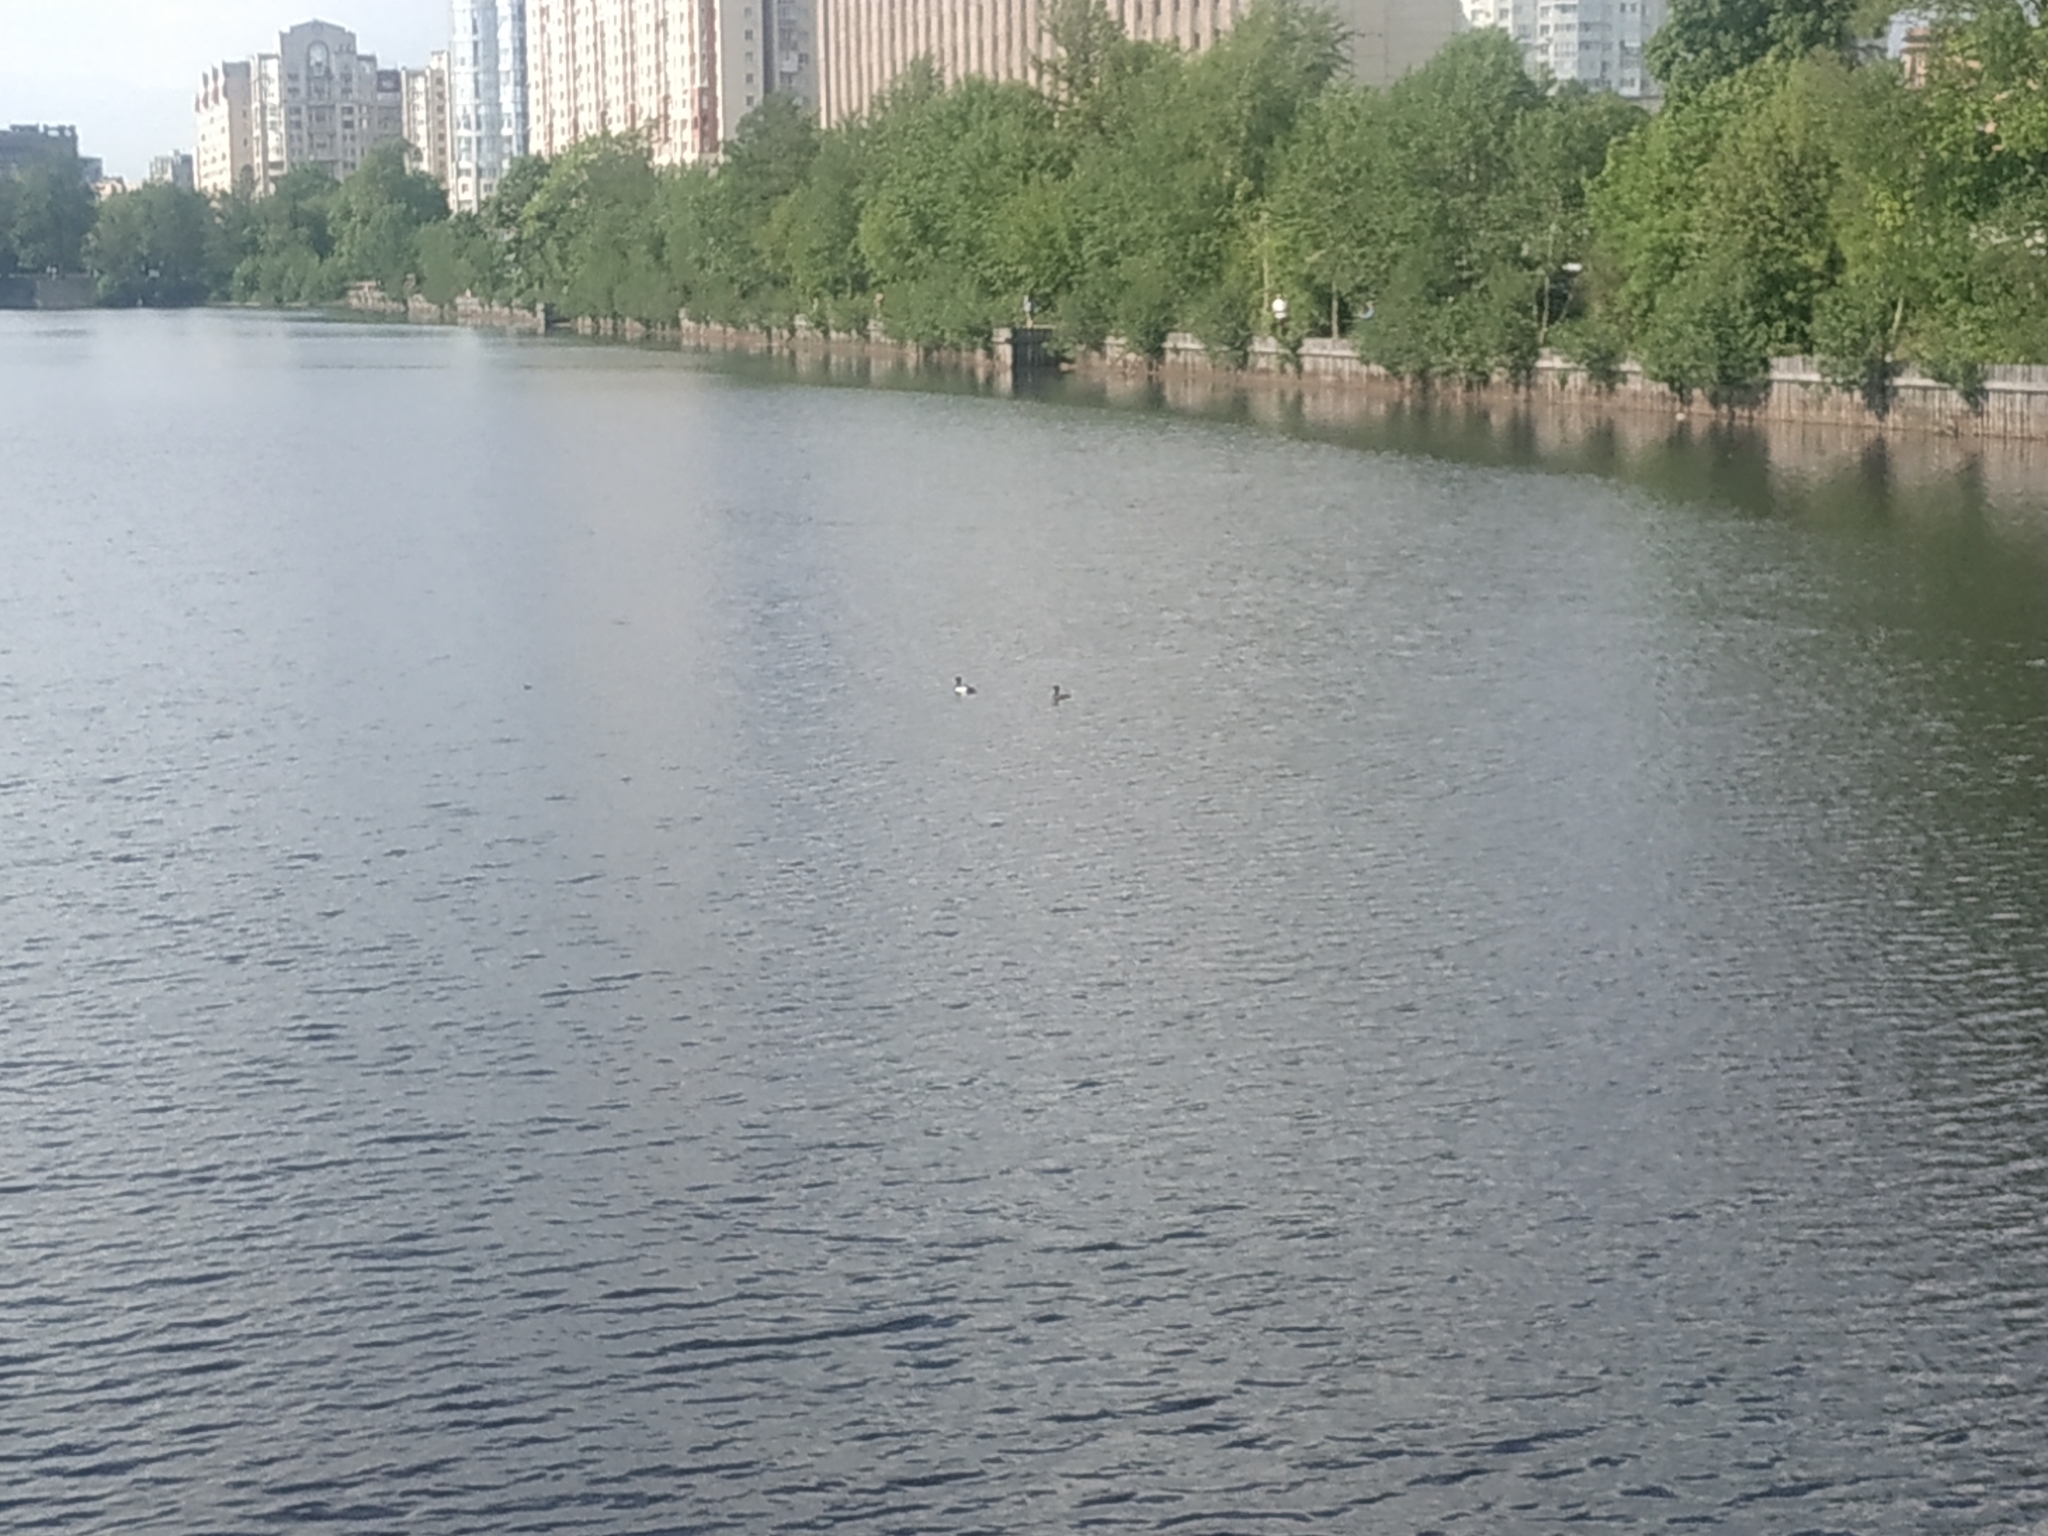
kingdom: Animalia
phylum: Chordata
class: Aves
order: Anseriformes
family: Anatidae
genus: Aythya
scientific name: Aythya fuligula
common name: Tufted duck
